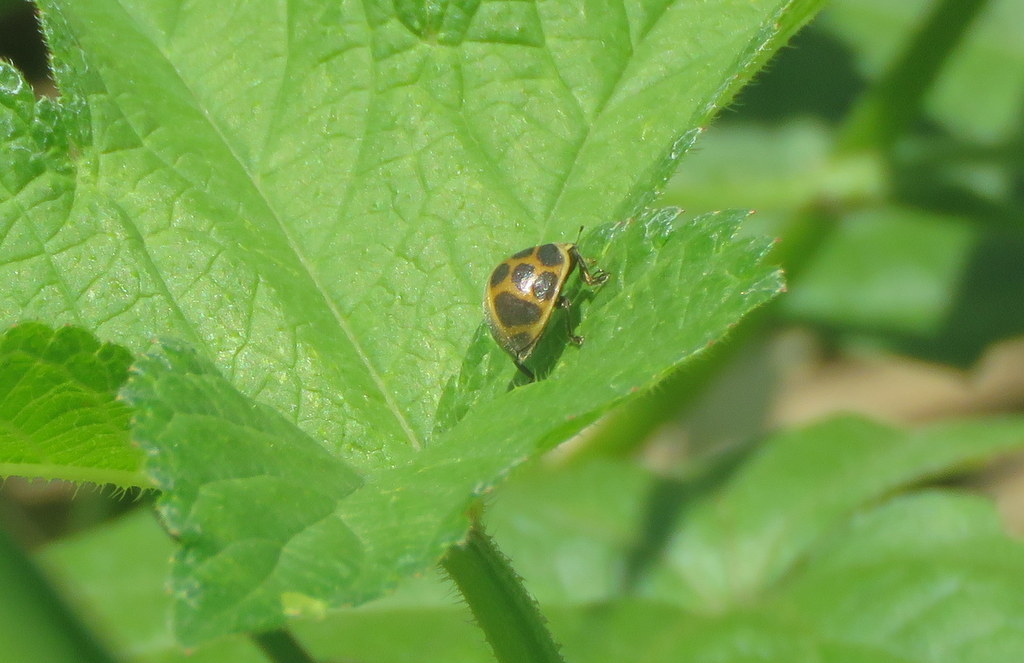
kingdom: Animalia
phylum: Arthropoda
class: Insecta
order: Coleoptera
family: Coccinellidae
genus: Epilachna
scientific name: Epilachna
